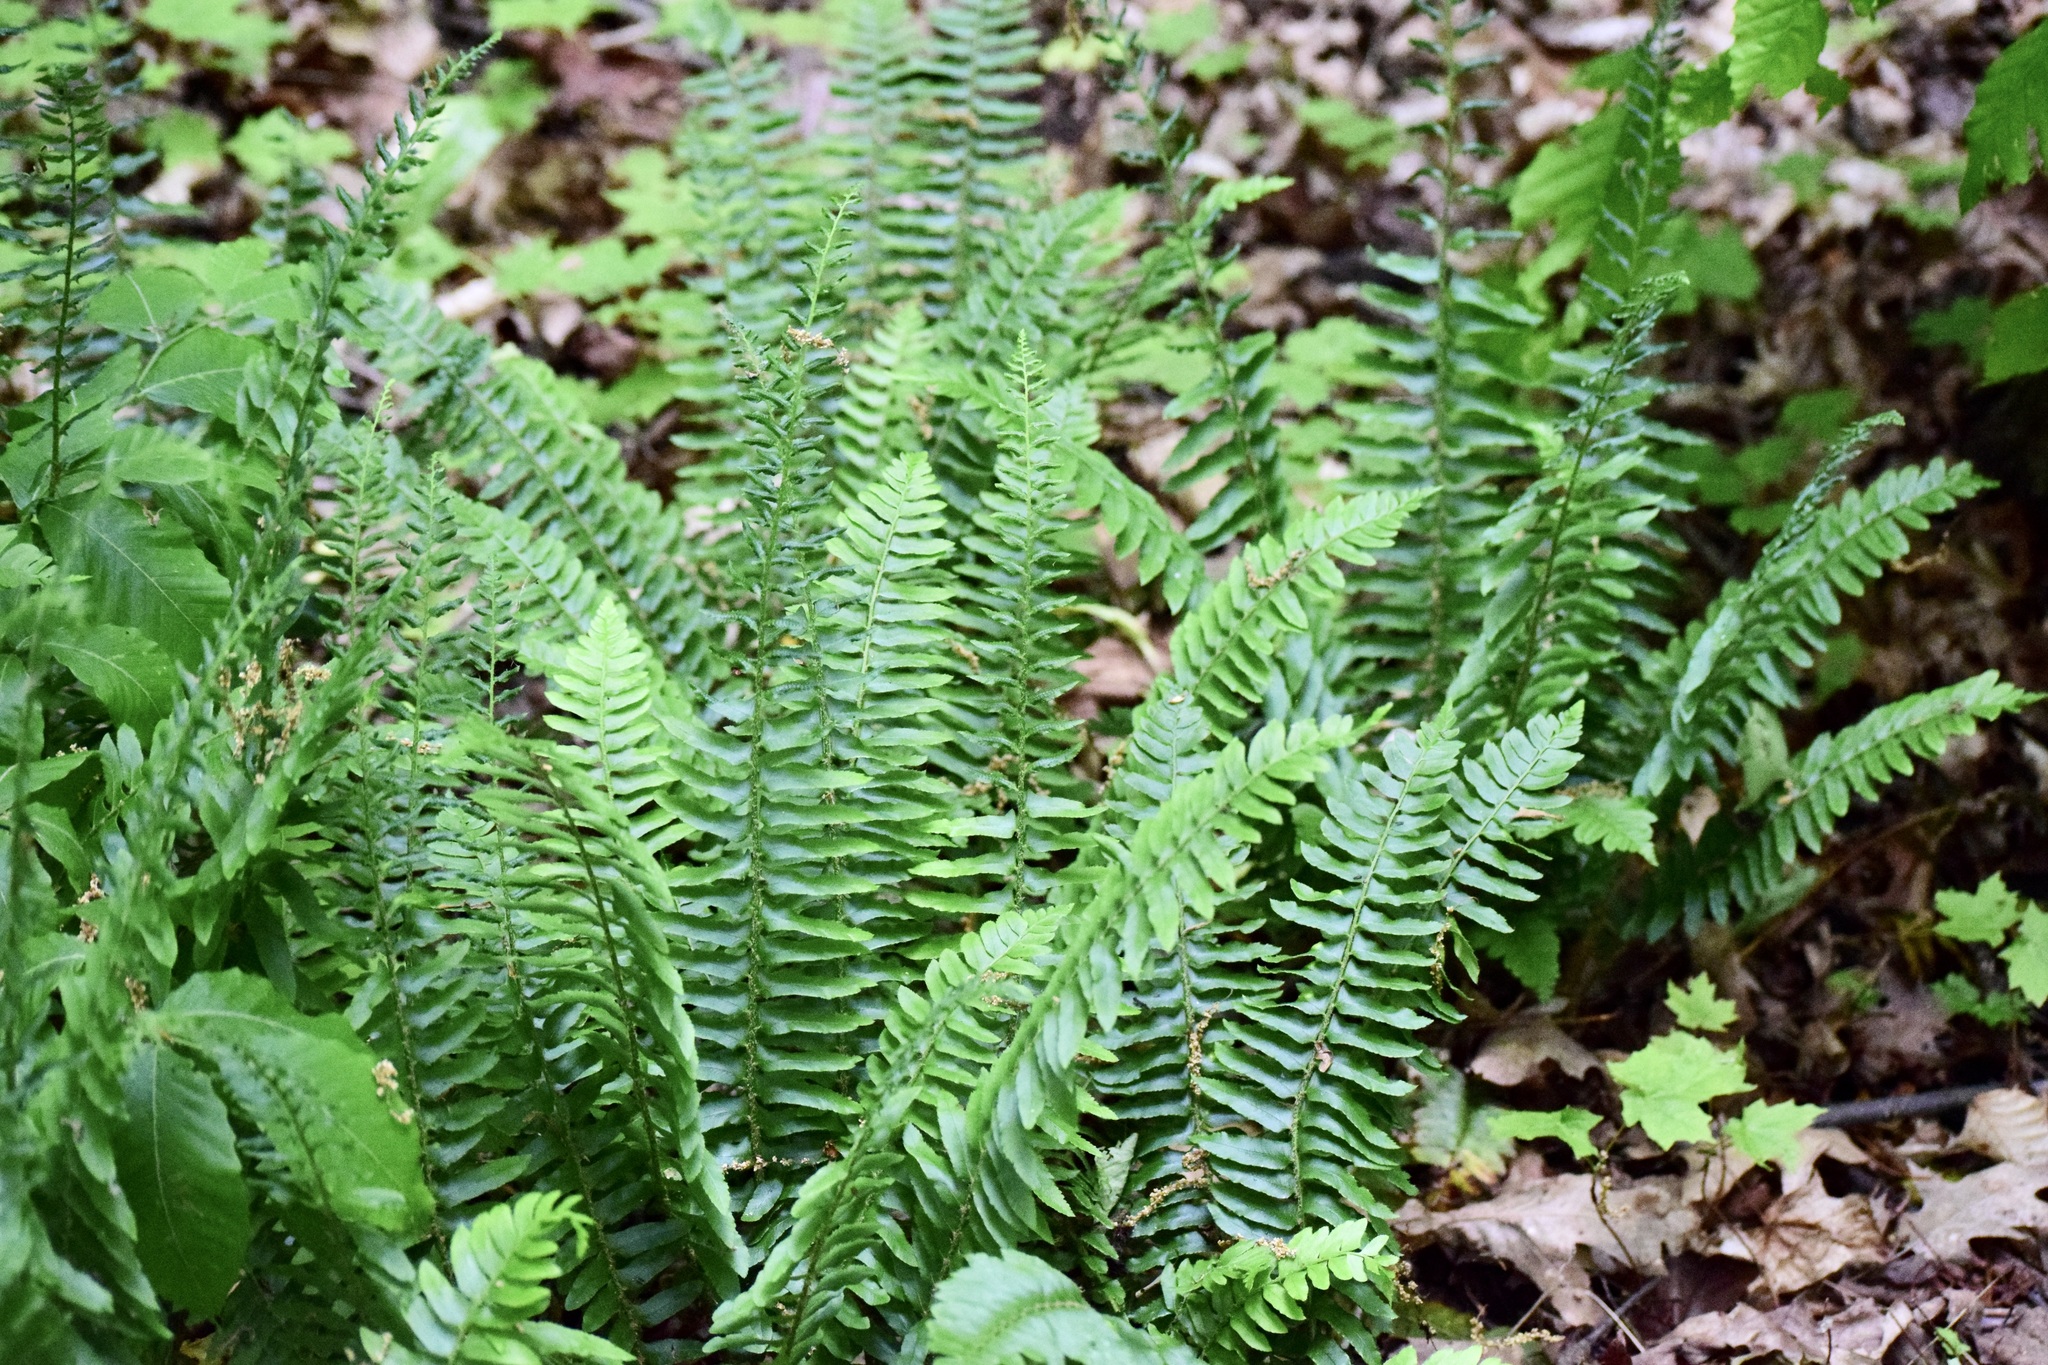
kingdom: Plantae
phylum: Tracheophyta
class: Polypodiopsida
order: Polypodiales
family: Dryopteridaceae
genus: Polystichum
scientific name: Polystichum acrostichoides
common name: Christmas fern
